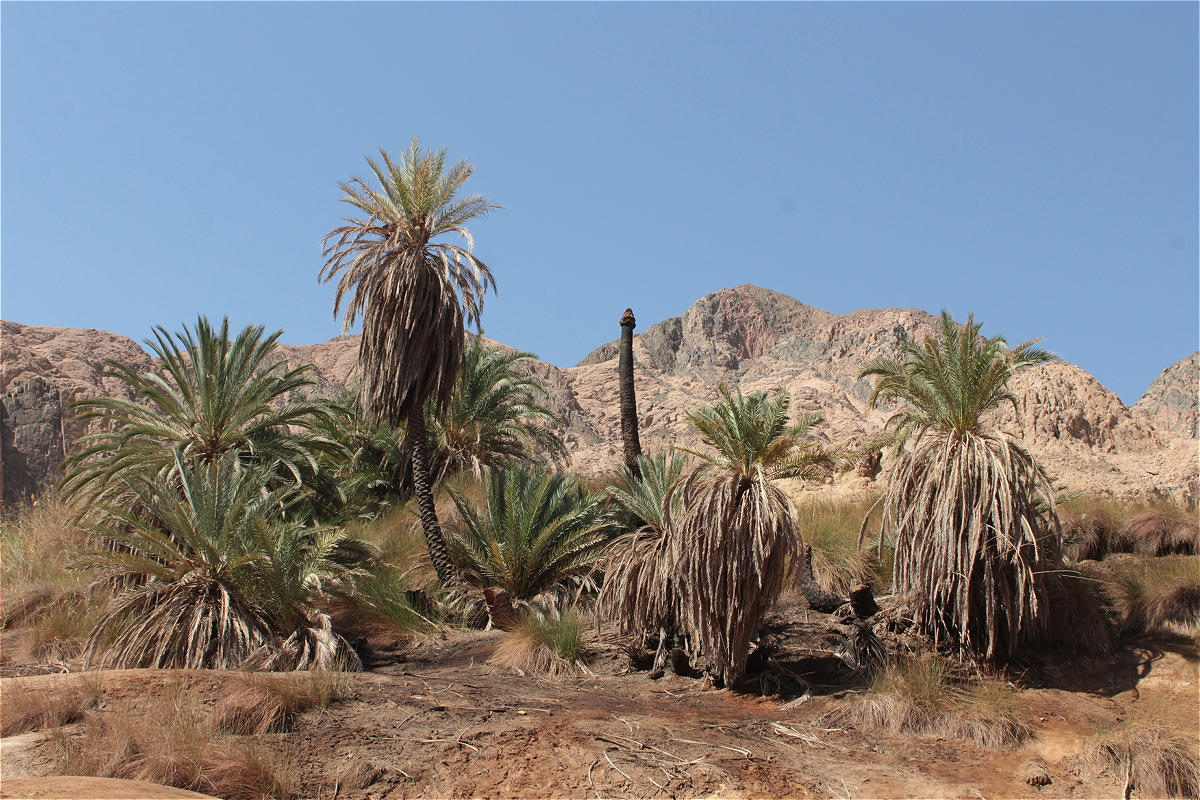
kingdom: Plantae
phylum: Tracheophyta
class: Liliopsida
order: Arecales
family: Arecaceae
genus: Phoenix
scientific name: Phoenix dactylifera
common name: Date palm
